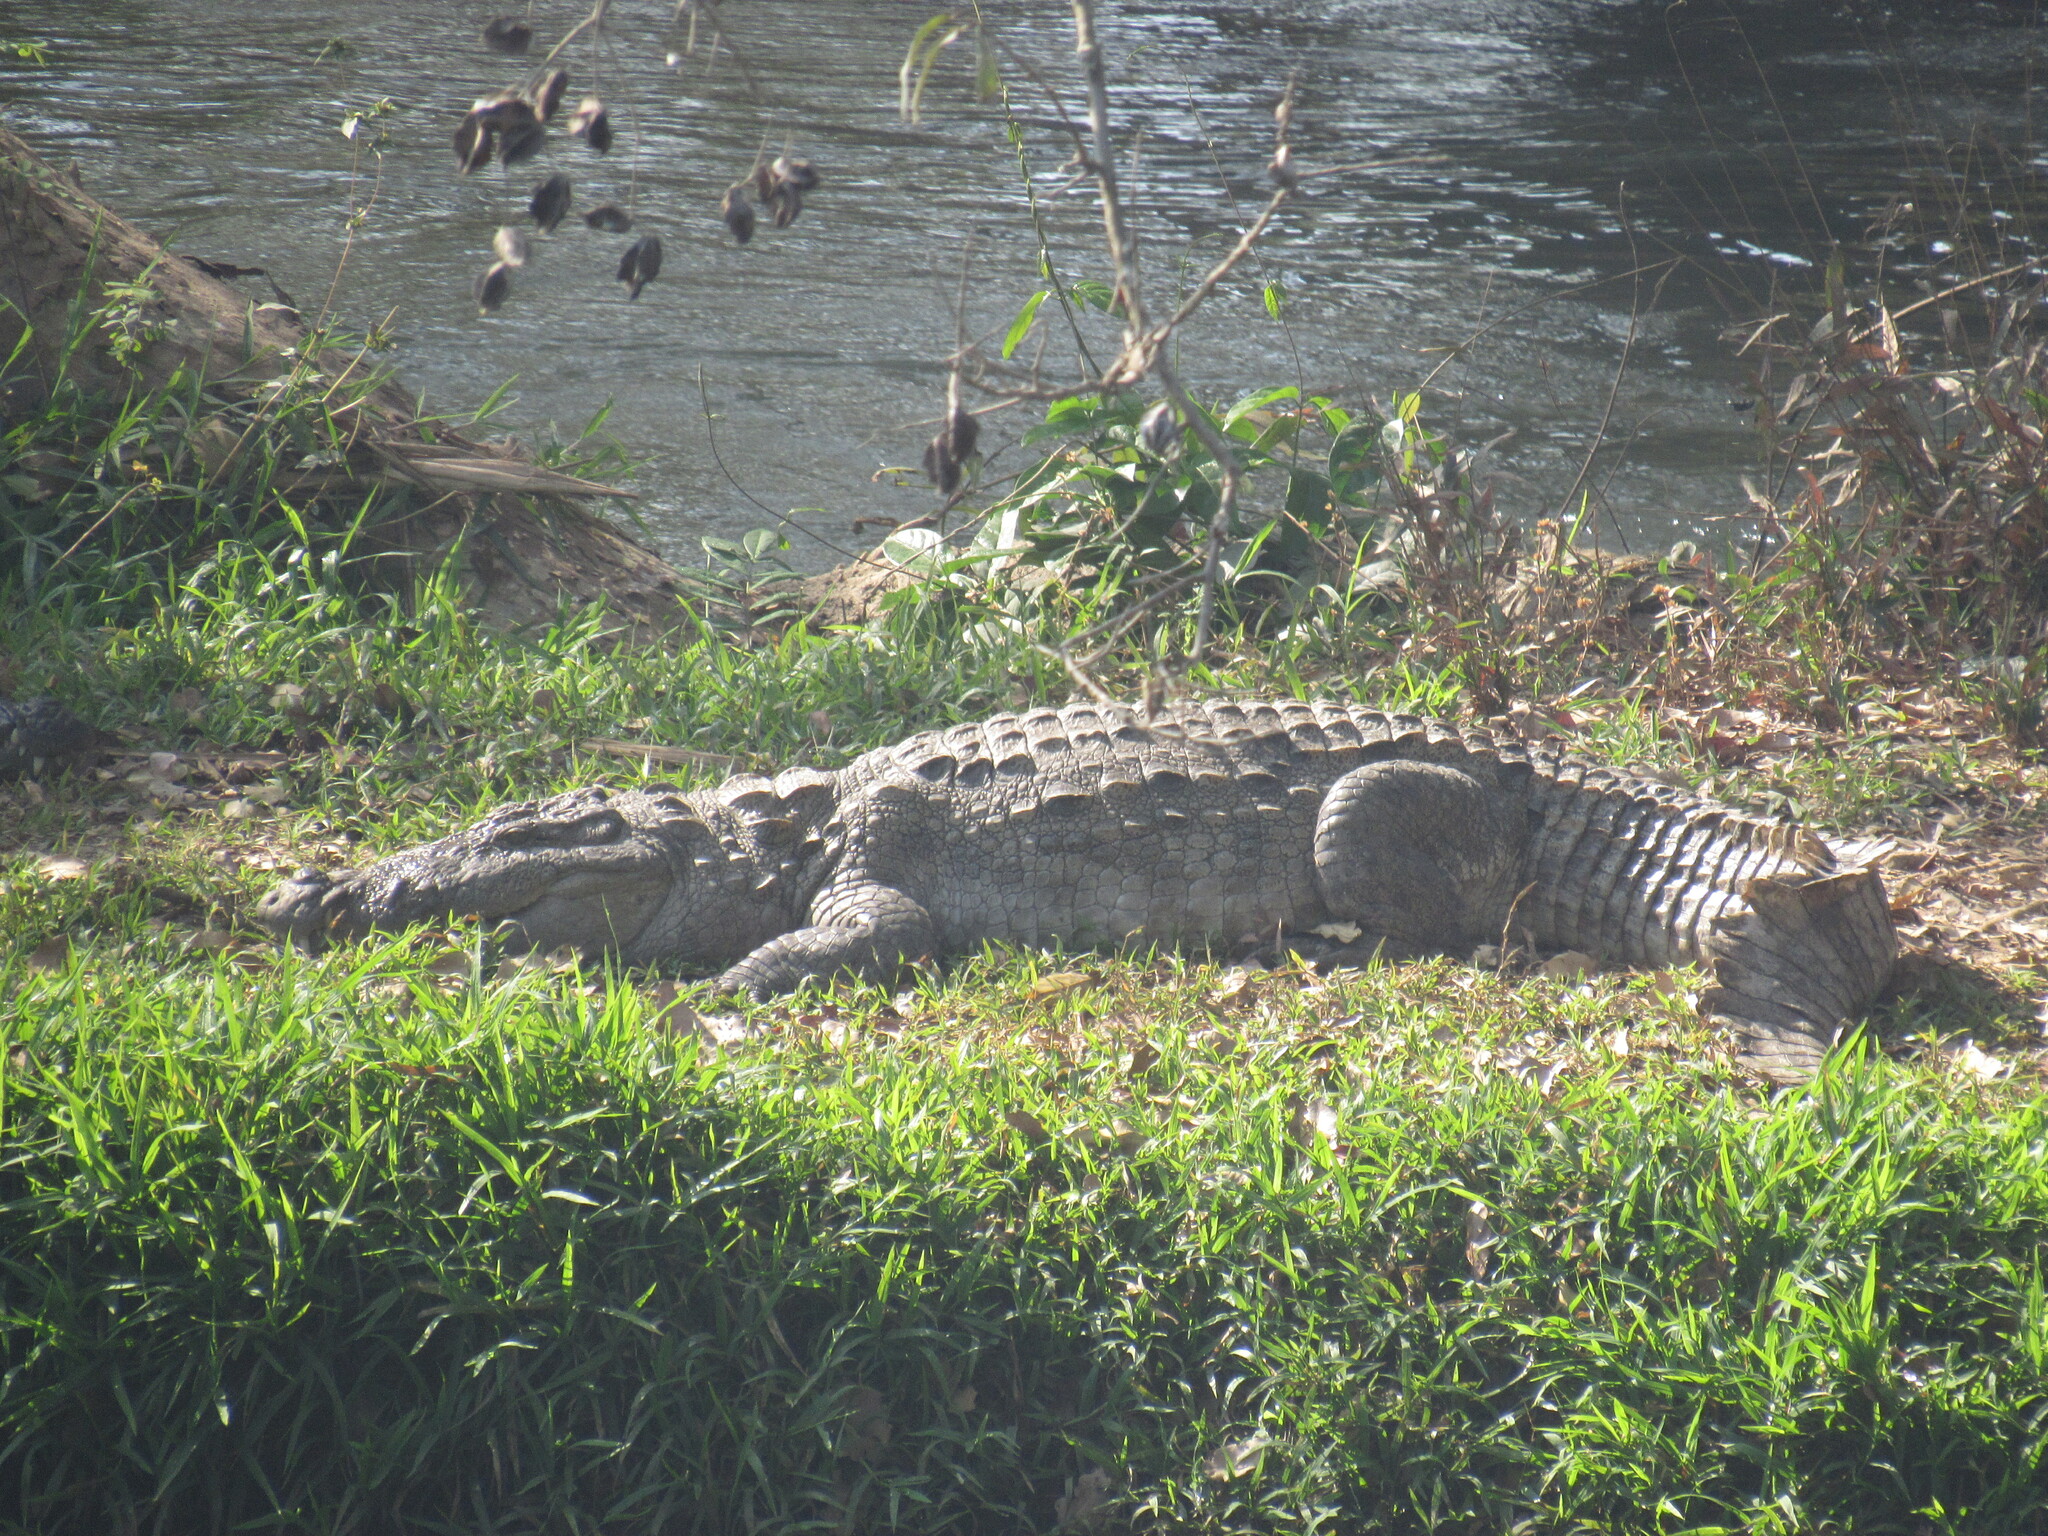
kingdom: Animalia
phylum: Chordata
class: Crocodylia
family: Crocodylidae
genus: Crocodylus
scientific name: Crocodylus palustris
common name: Mugger crocodile
